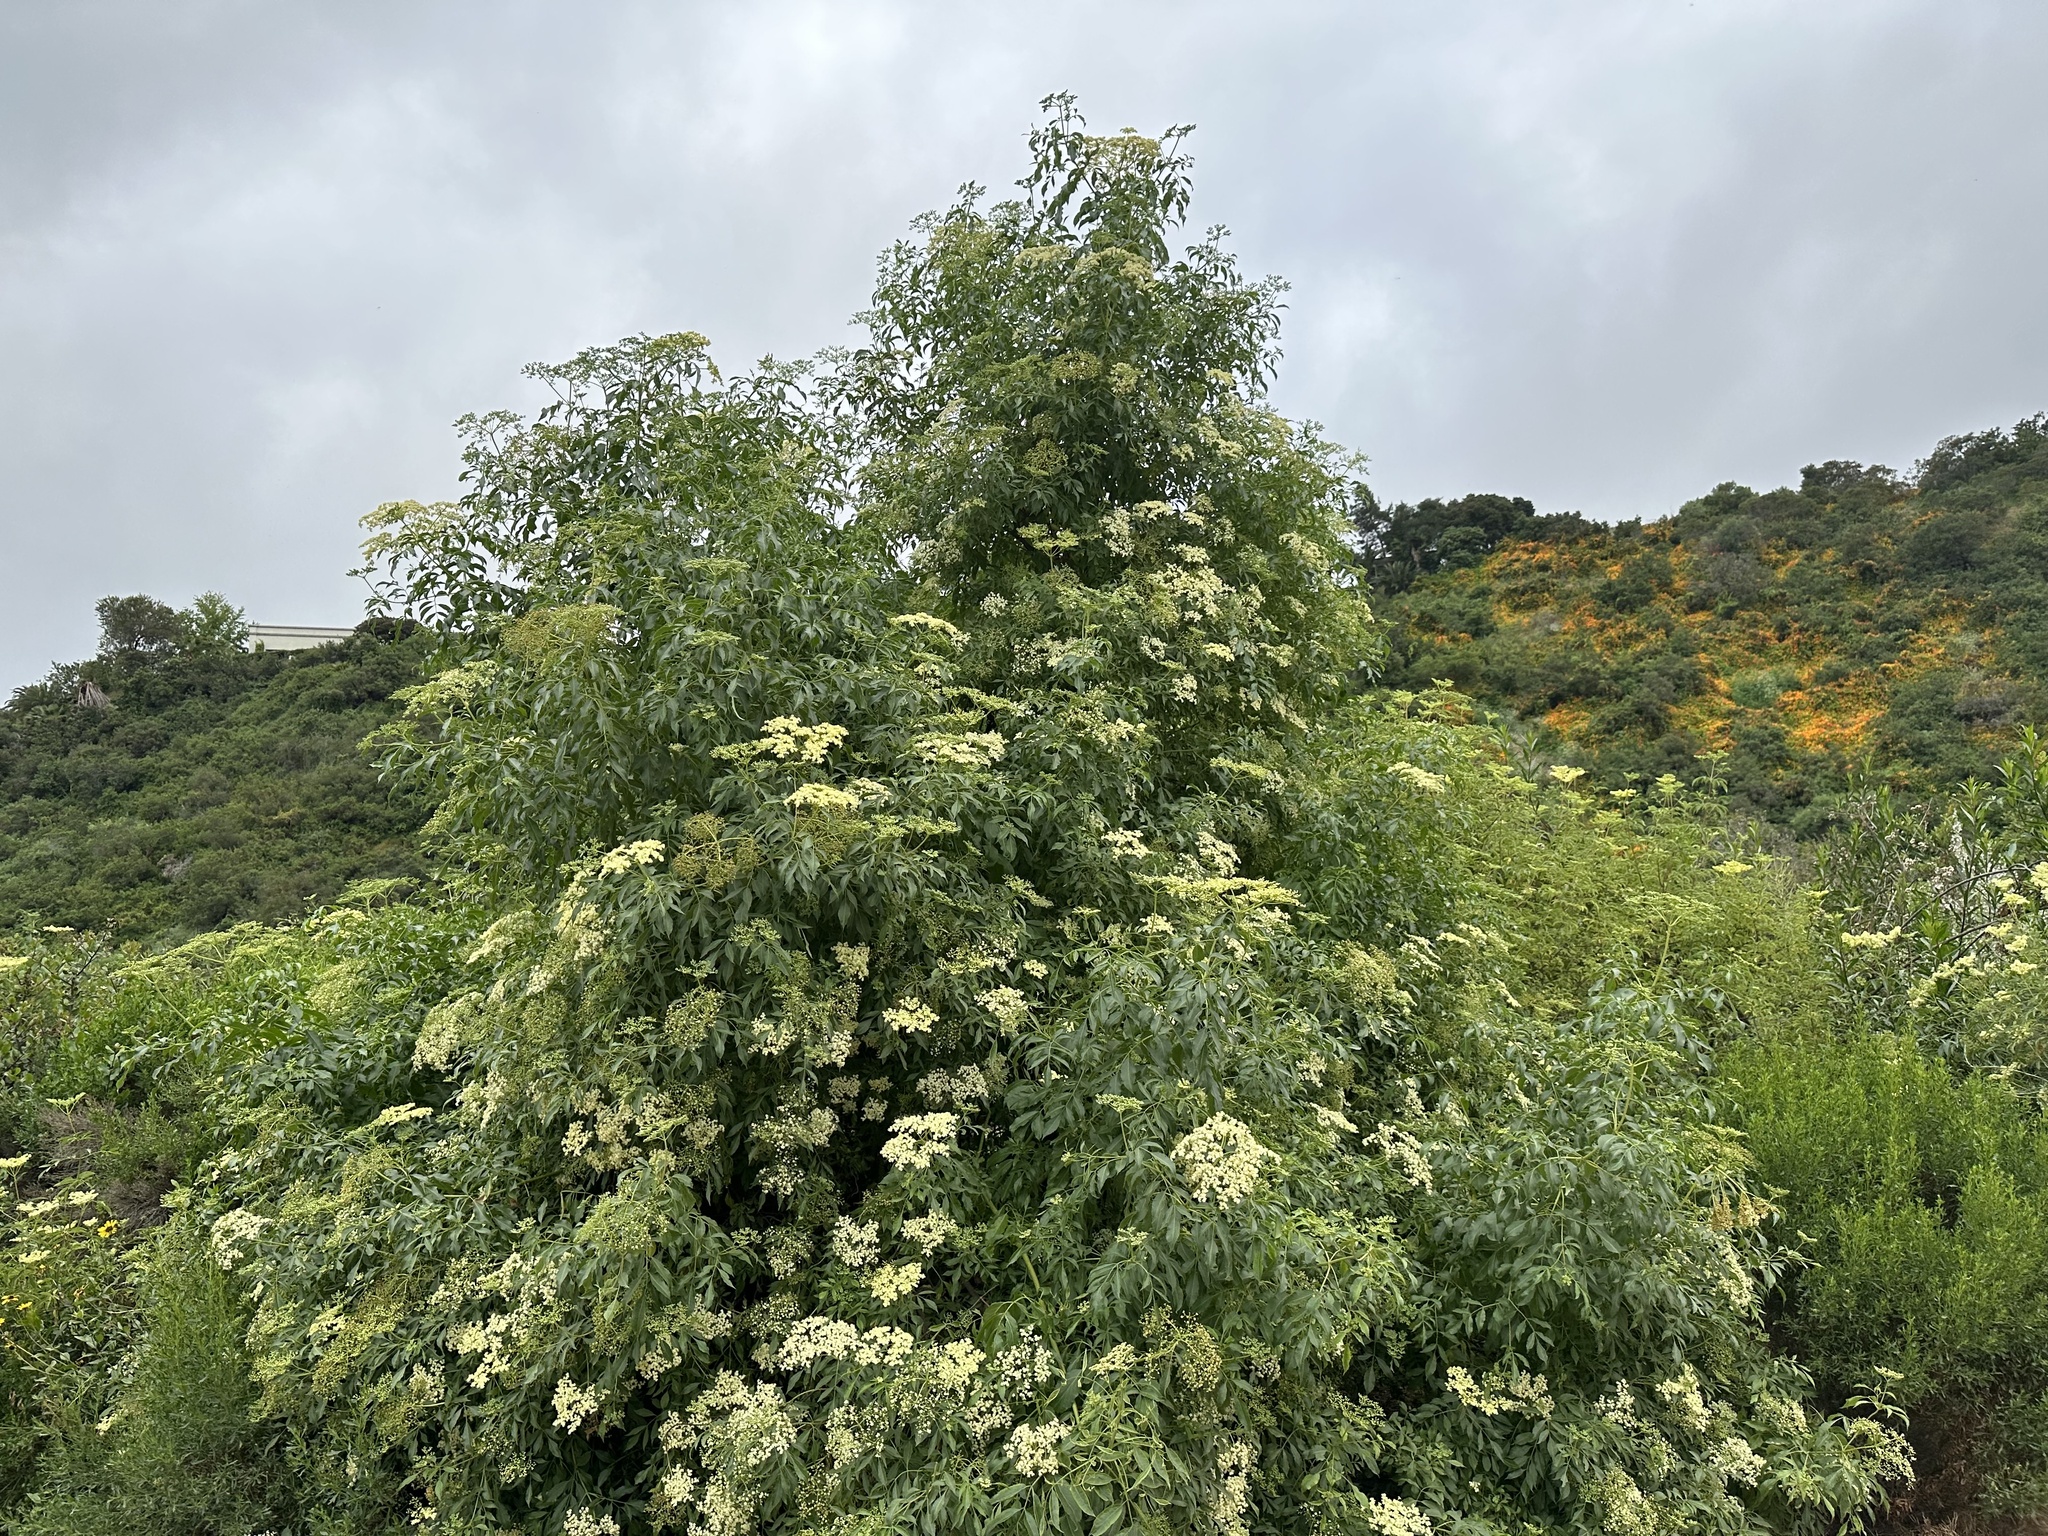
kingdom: Plantae
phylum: Tracheophyta
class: Magnoliopsida
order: Dipsacales
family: Viburnaceae
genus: Sambucus
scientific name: Sambucus cerulea
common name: Blue elder
